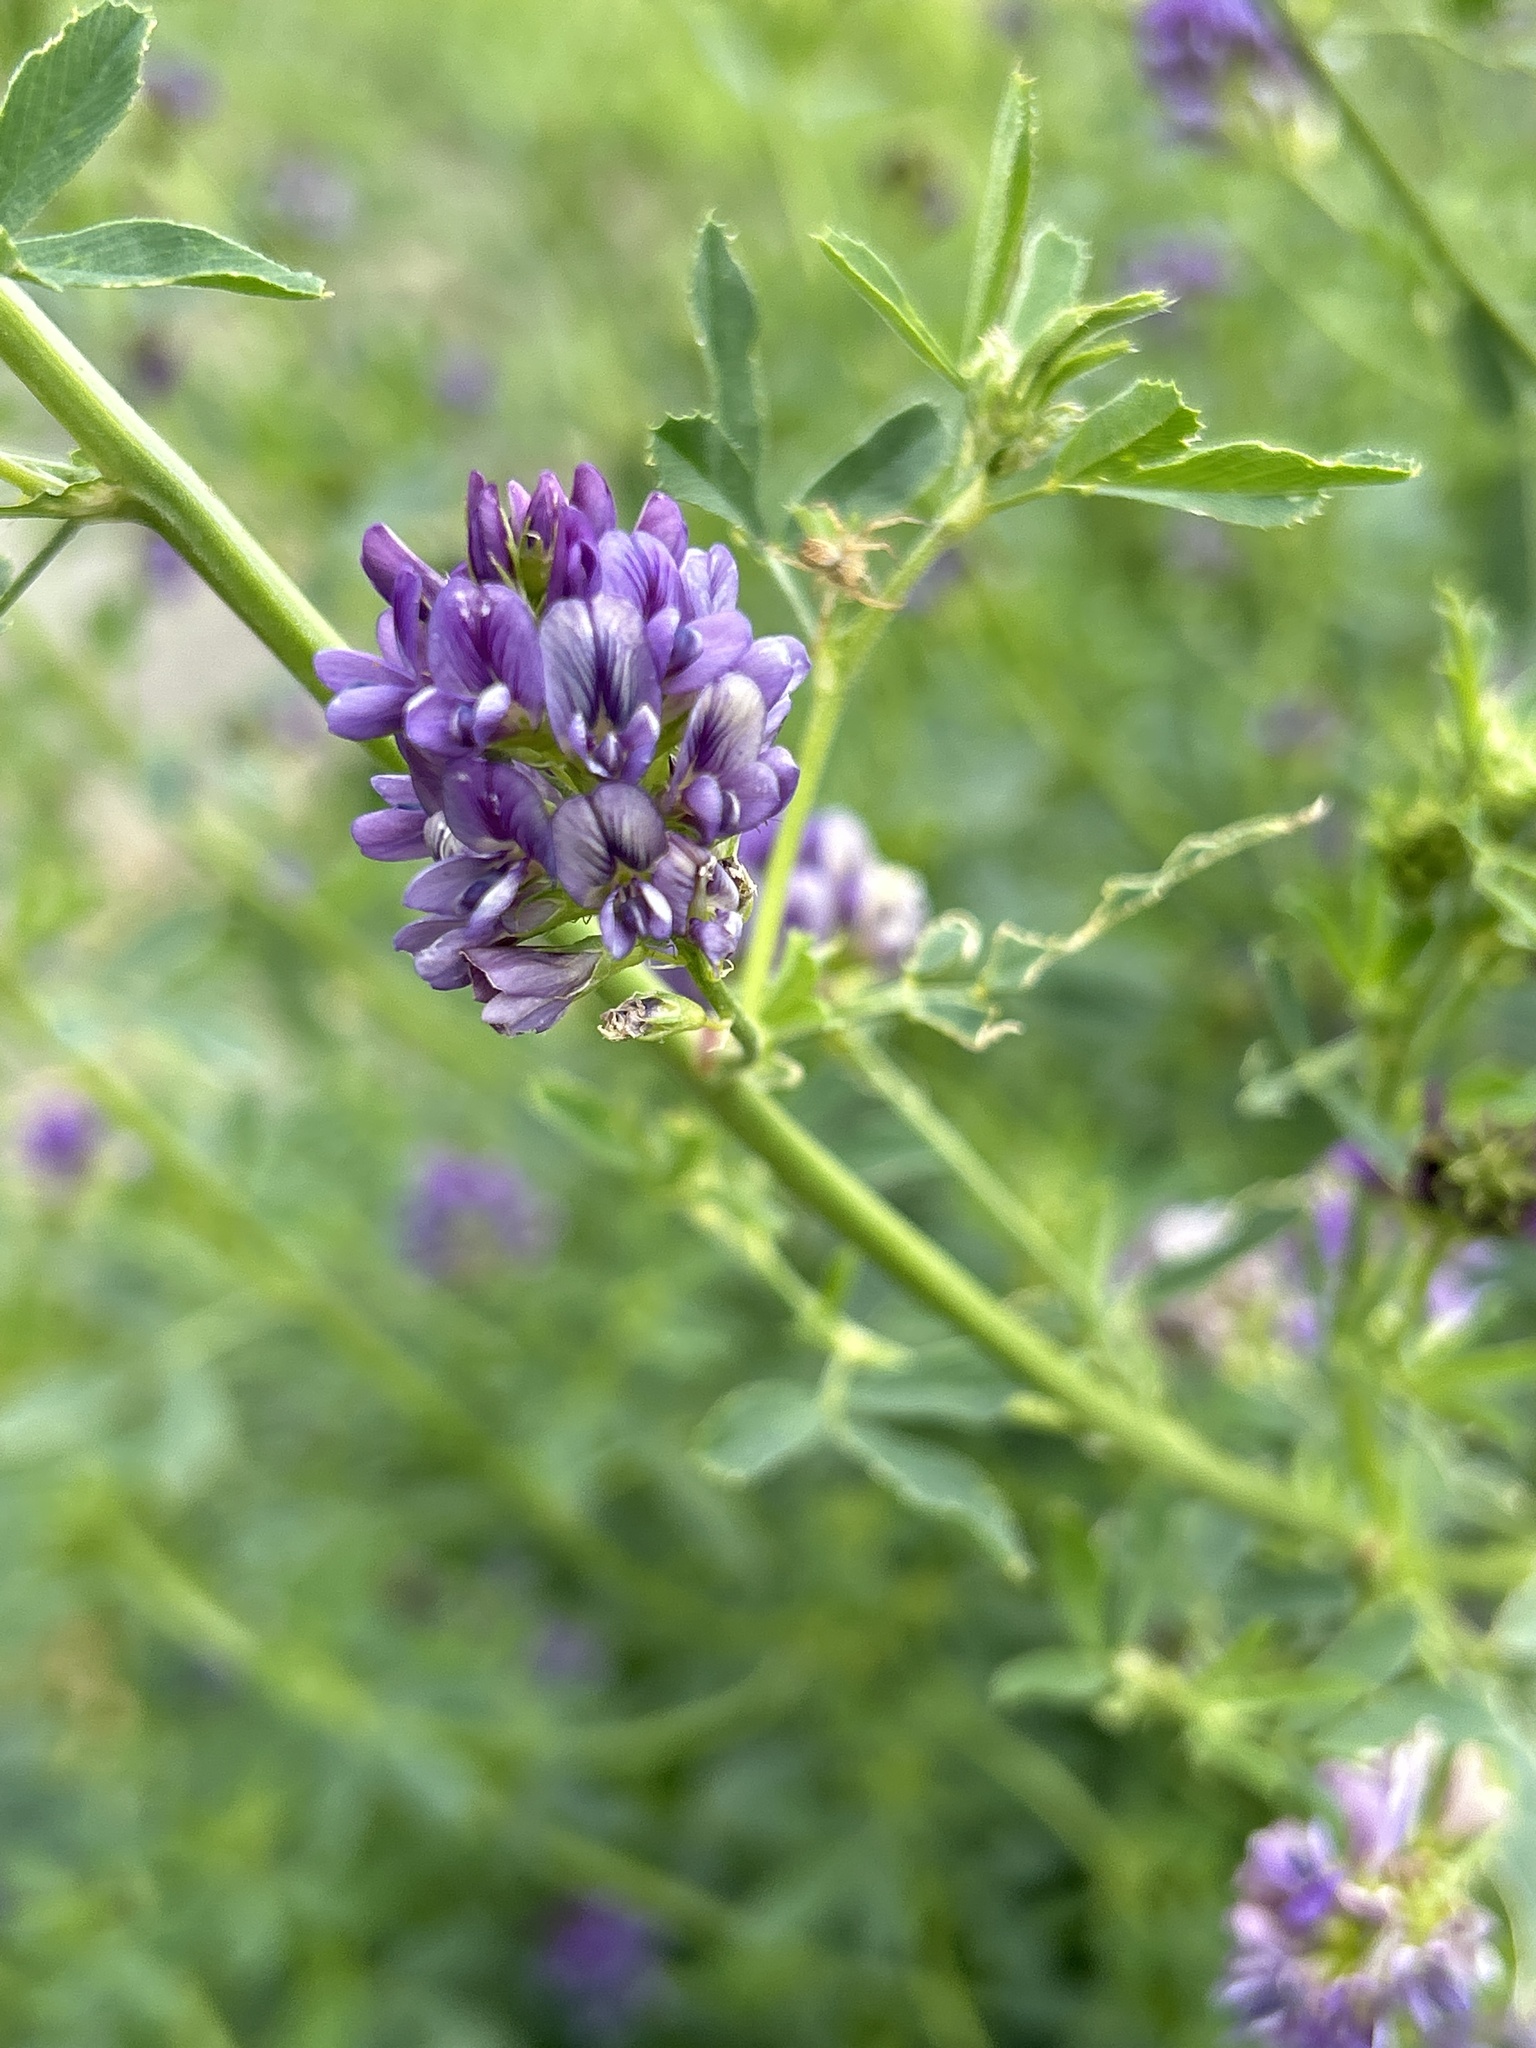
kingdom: Plantae
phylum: Tracheophyta
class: Magnoliopsida
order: Fabales
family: Fabaceae
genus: Medicago
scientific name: Medicago sativa
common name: Alfalfa
